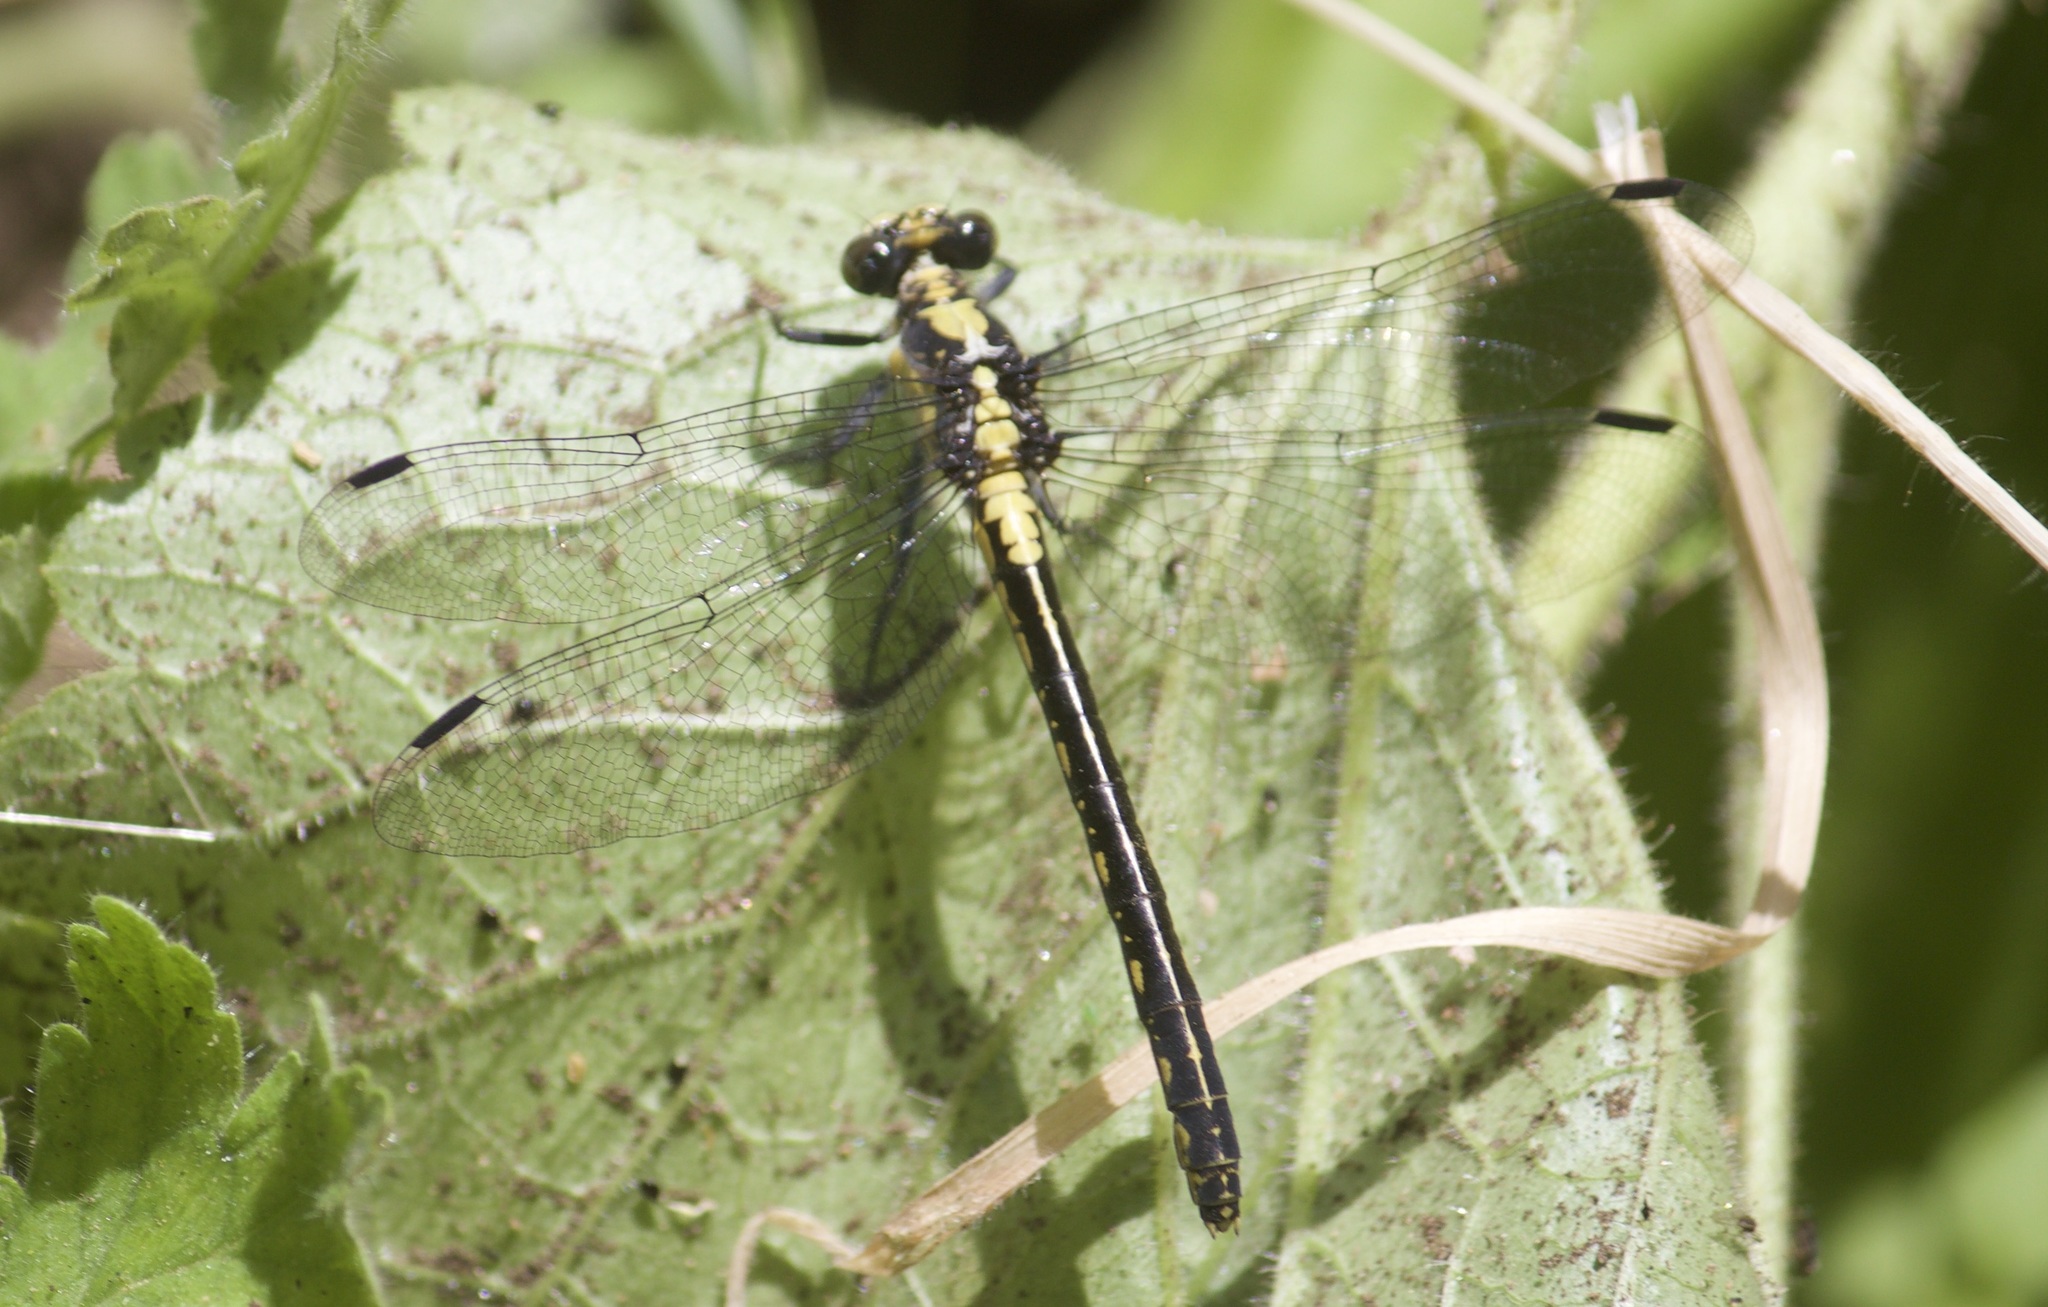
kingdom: Animalia
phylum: Arthropoda
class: Insecta
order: Odonata
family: Gomphidae
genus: Octogomphus
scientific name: Octogomphus specularis
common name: Grappletail
